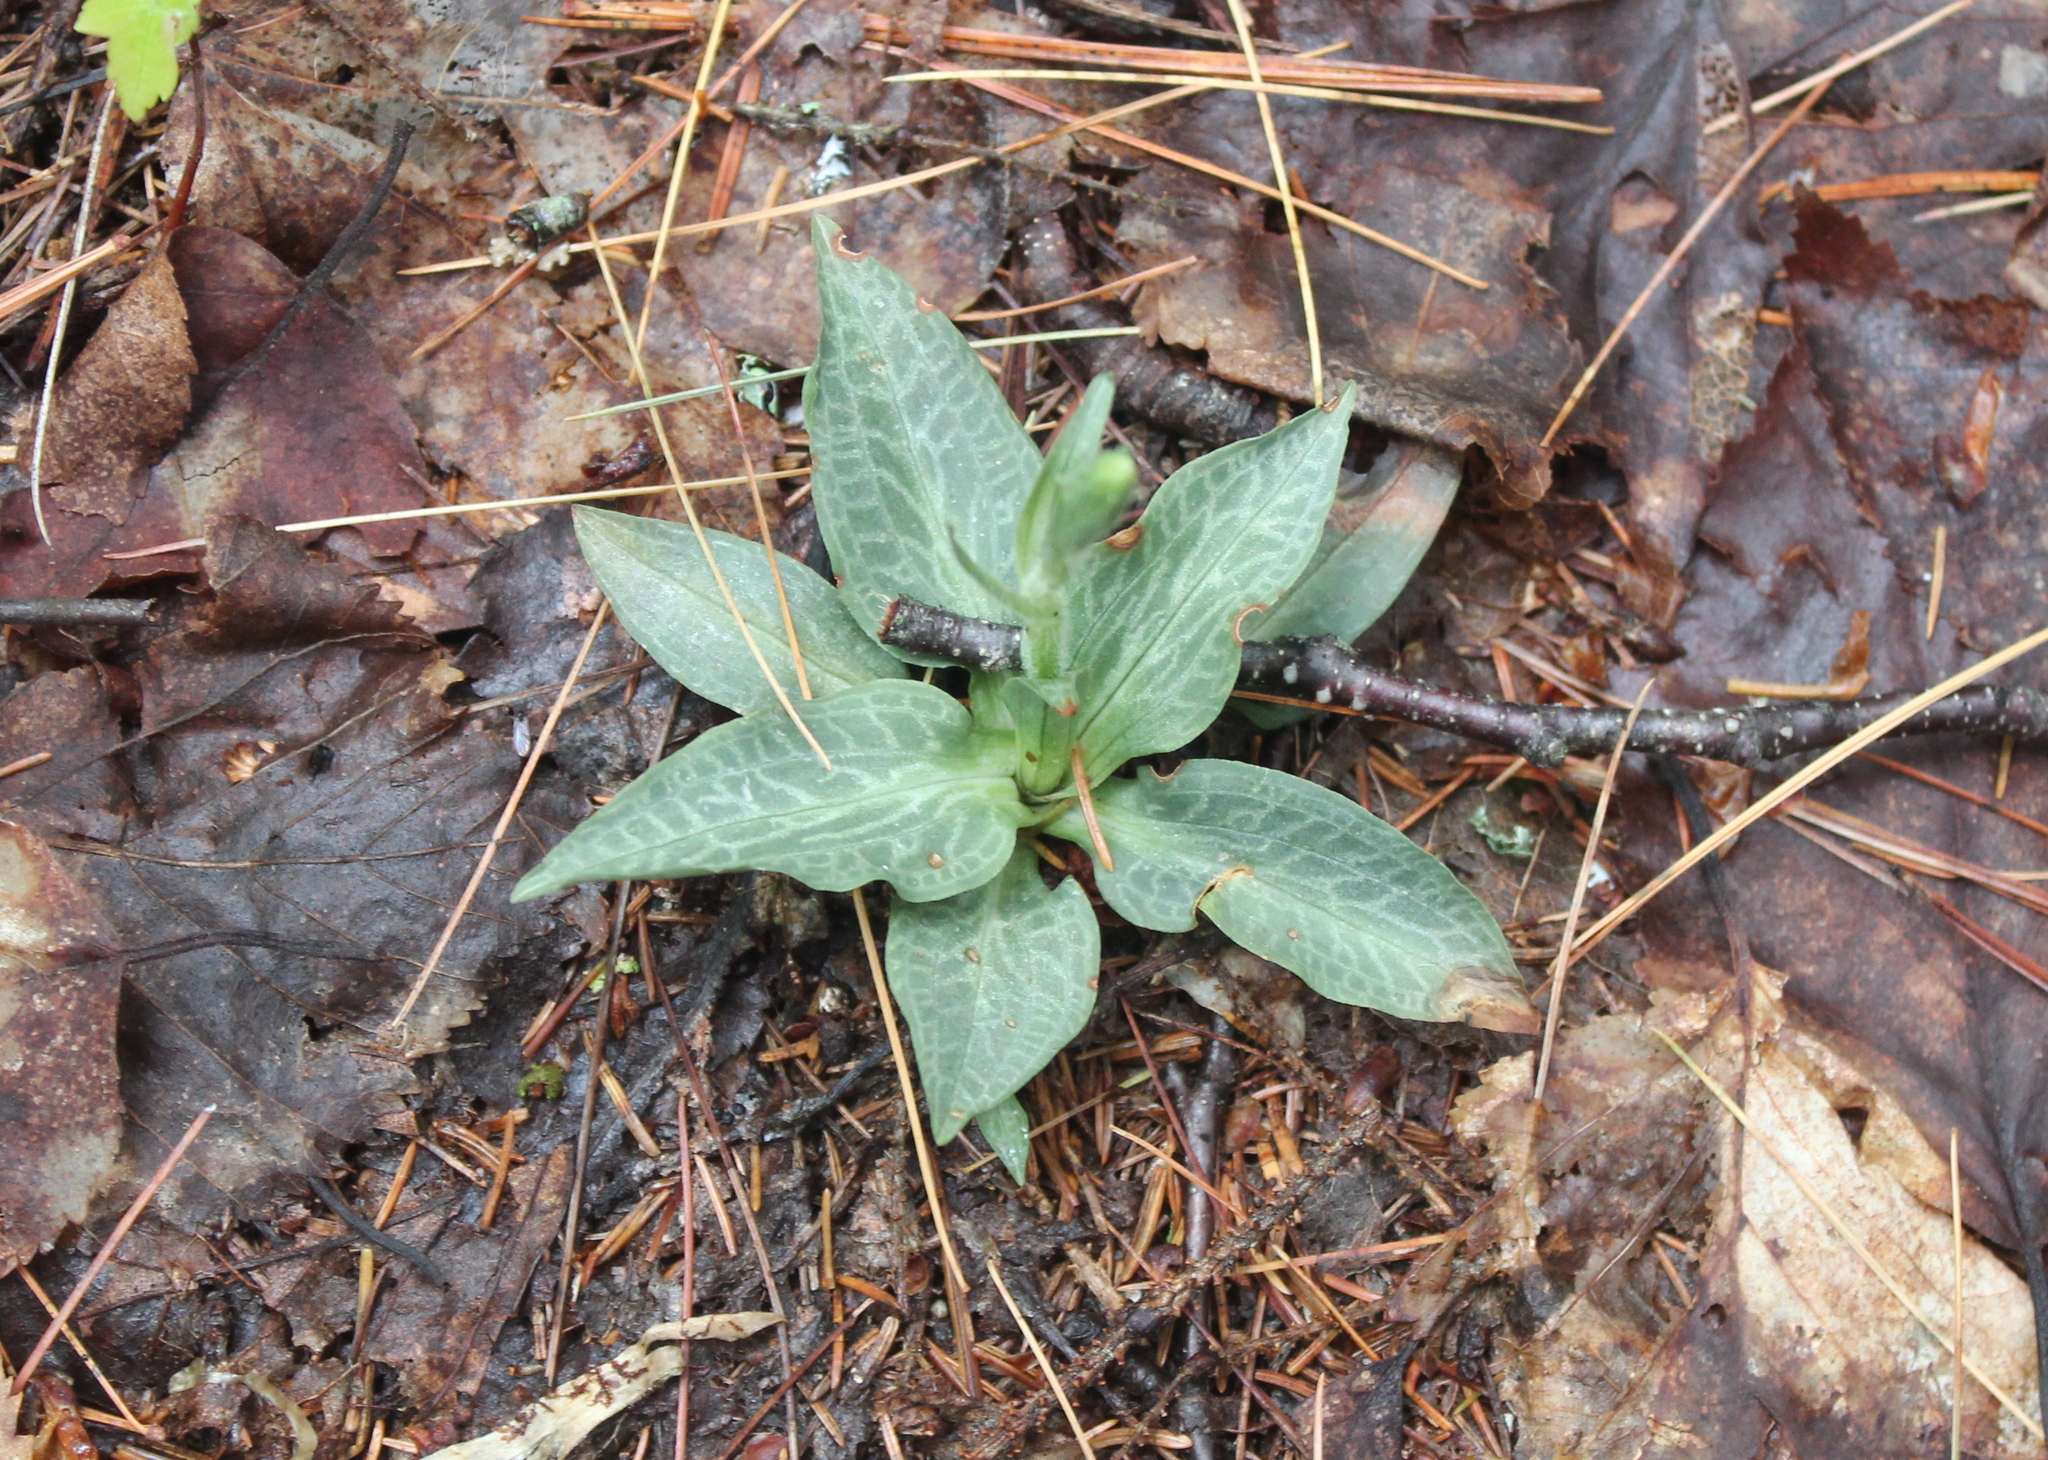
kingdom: Plantae
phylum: Tracheophyta
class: Liliopsida
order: Asparagales
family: Orchidaceae
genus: Goodyera
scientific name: Goodyera tesselata
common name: Checkered rattlesnake-plantain
